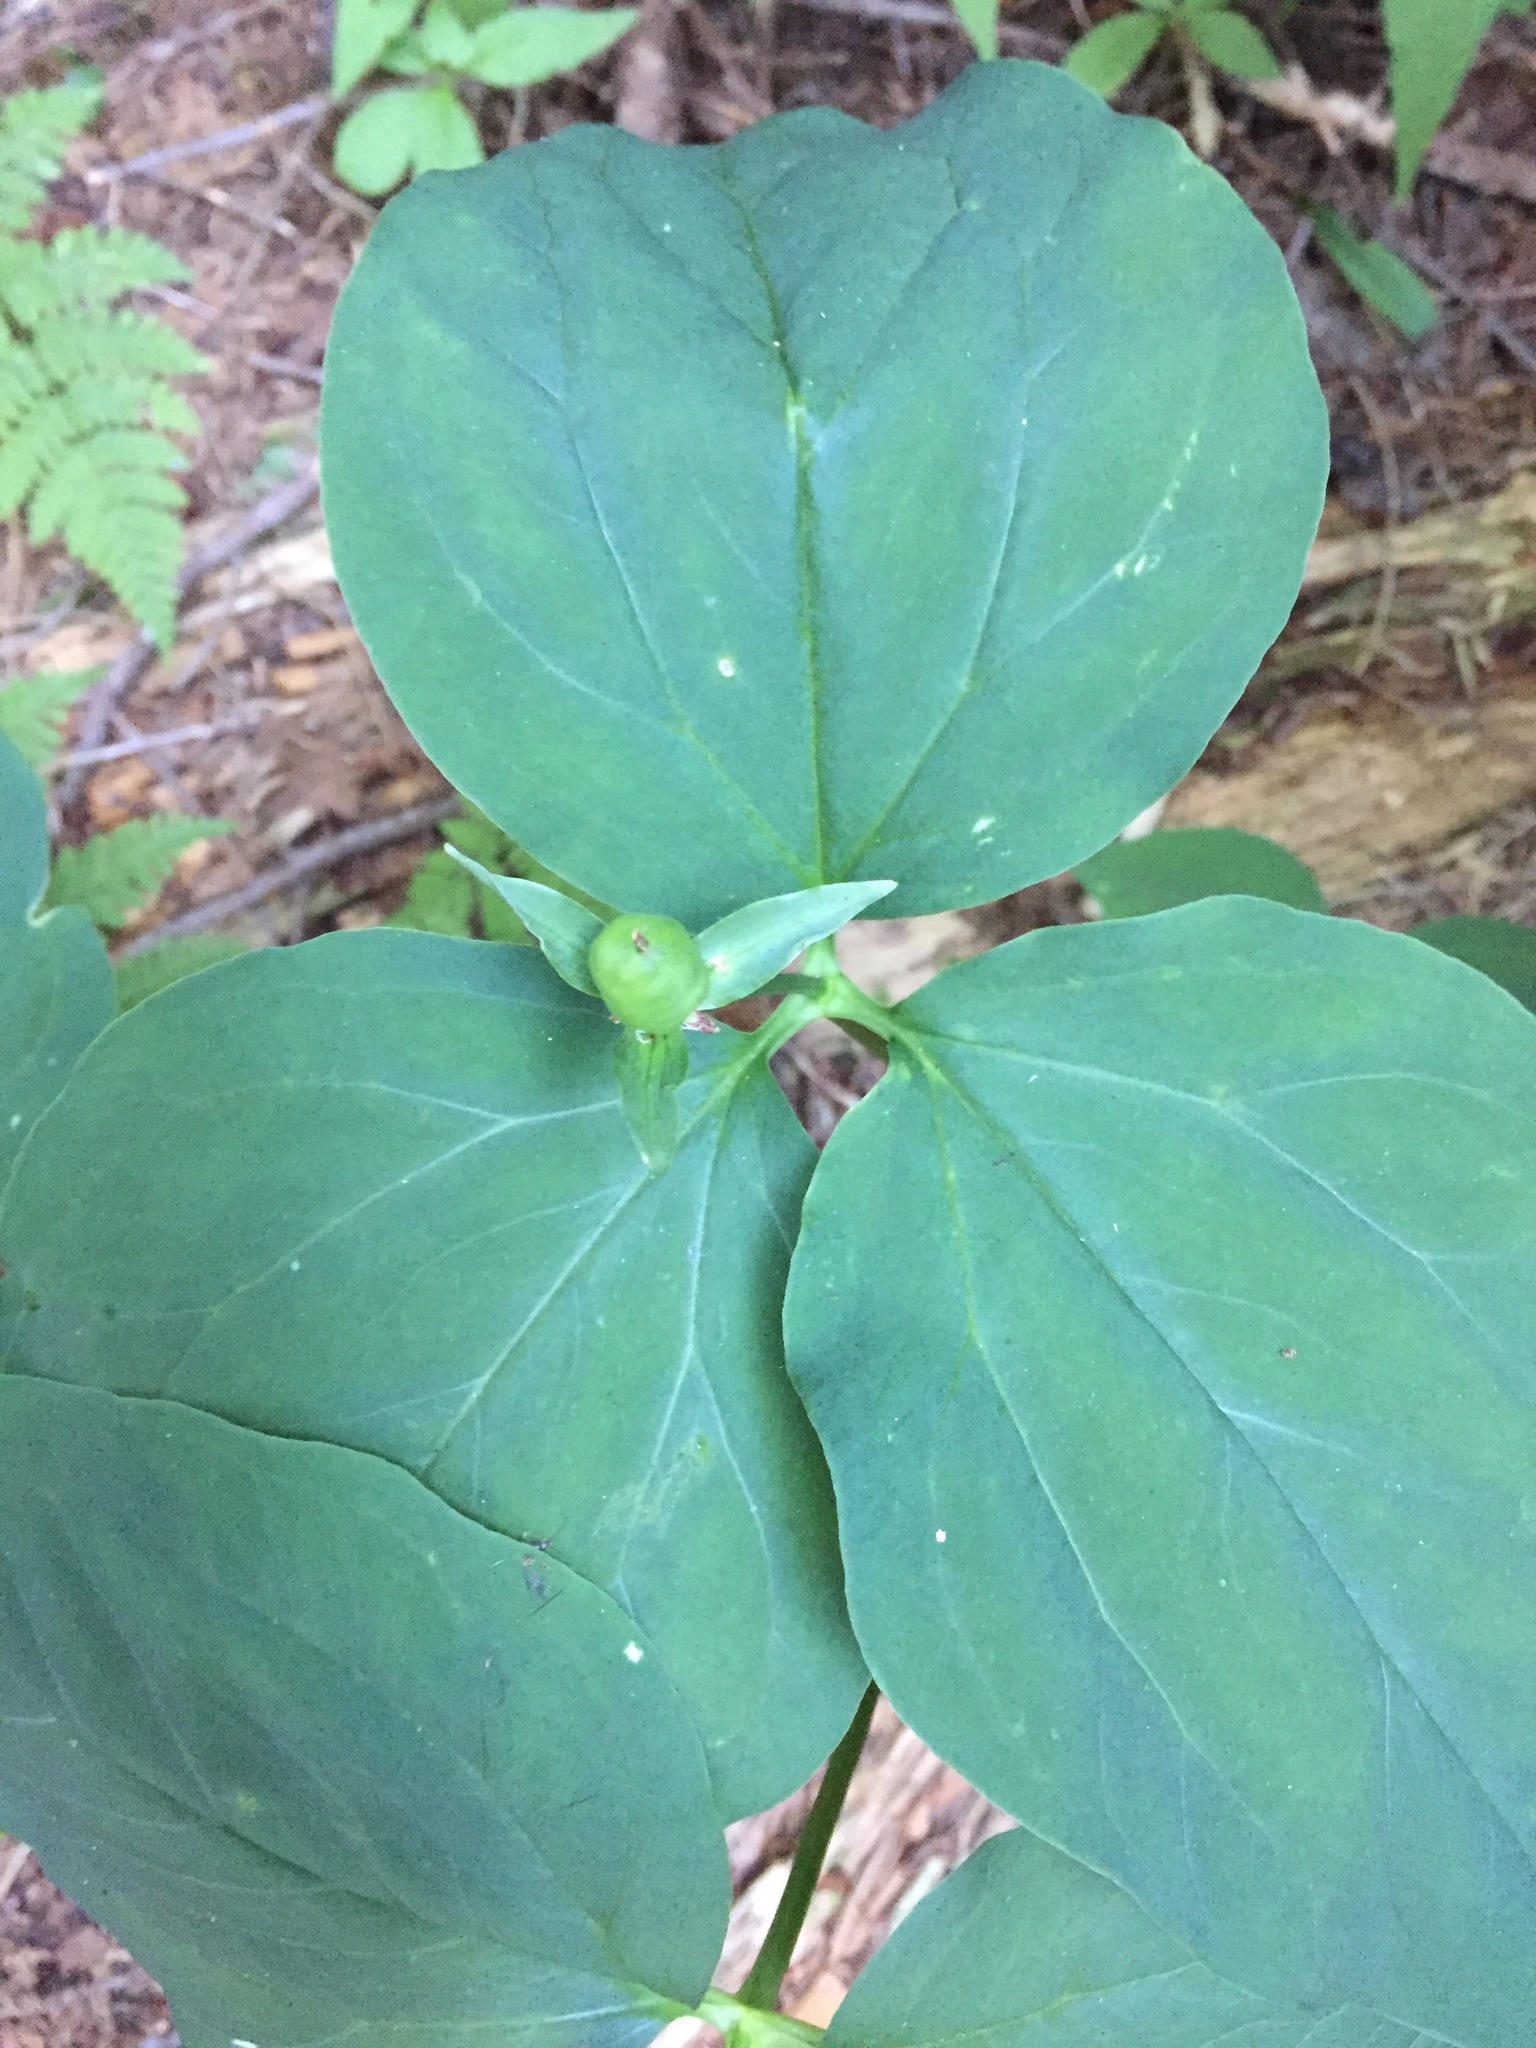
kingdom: Plantae
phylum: Tracheophyta
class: Liliopsida
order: Liliales
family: Melanthiaceae
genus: Trillium
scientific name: Trillium undulatum
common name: Paint trillium
